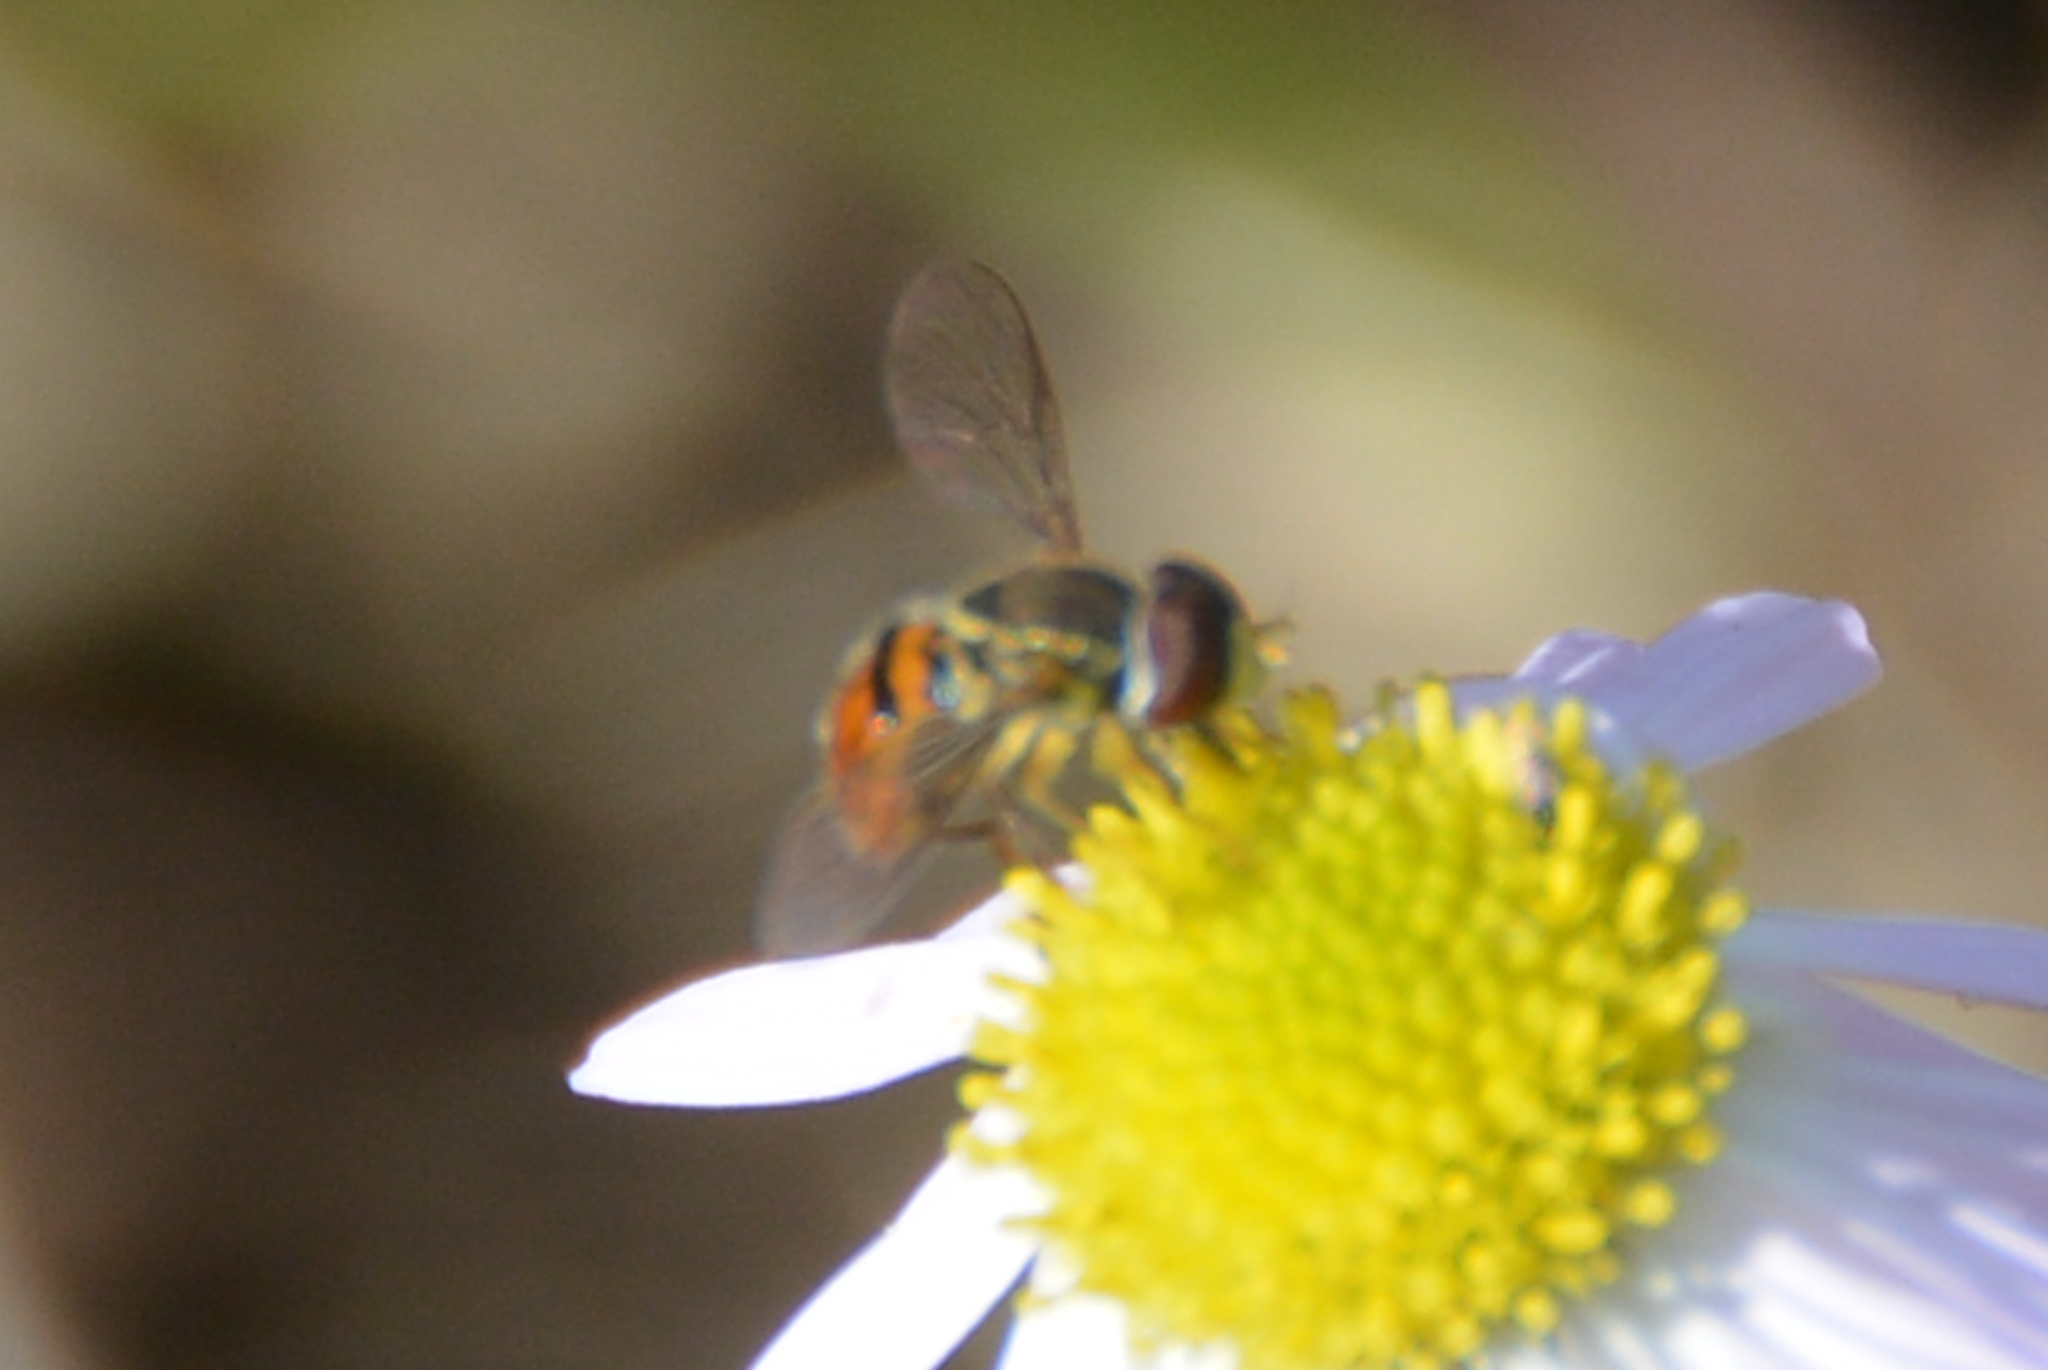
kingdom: Animalia
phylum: Arthropoda
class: Insecta
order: Diptera
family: Syrphidae
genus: Toxomerus
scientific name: Toxomerus boscii
